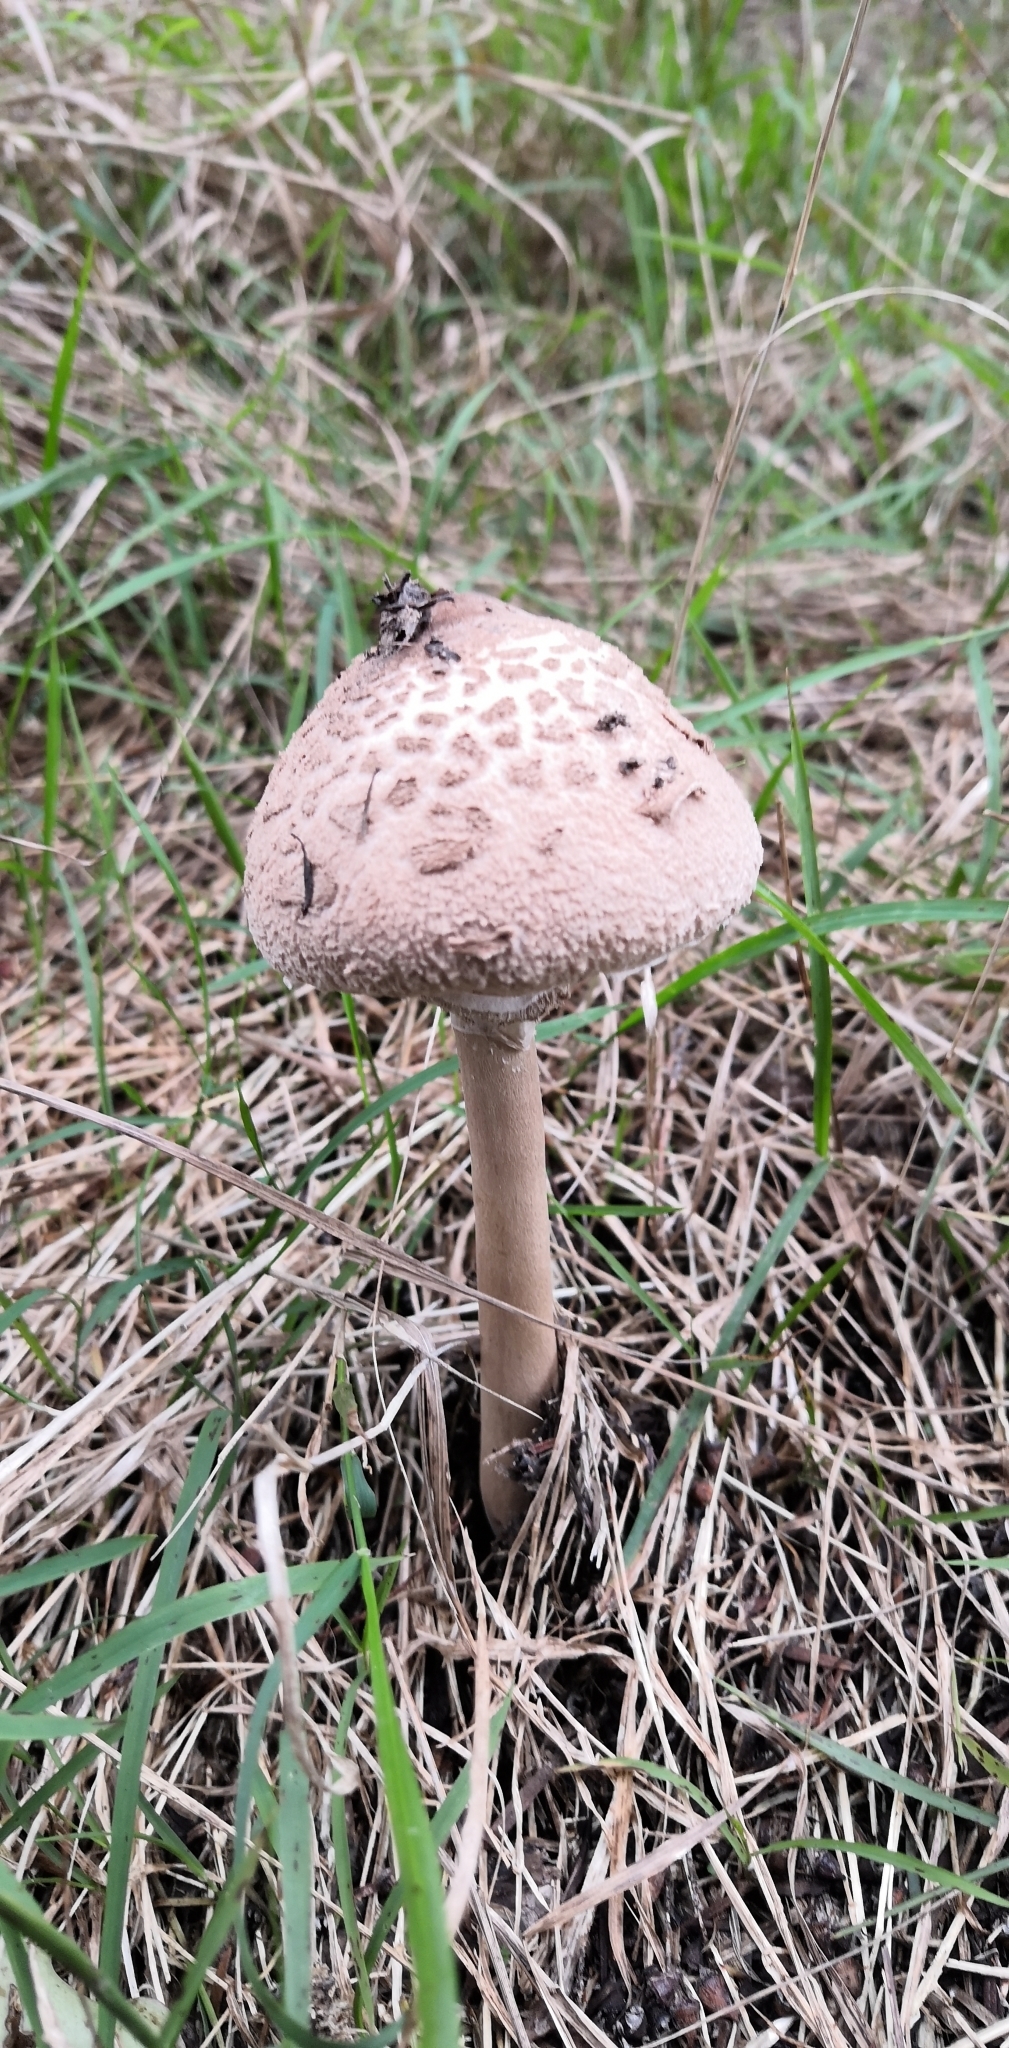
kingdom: Fungi
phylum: Basidiomycota
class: Agaricomycetes
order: Agaricales
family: Agaricaceae
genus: Macrolepiota
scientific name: Macrolepiota clelandii
